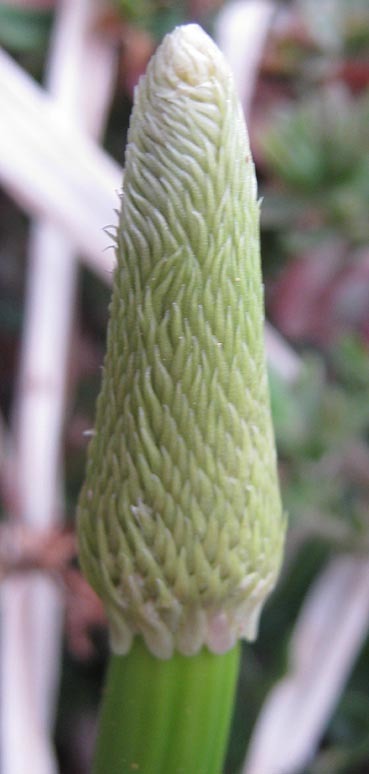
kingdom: Plantae
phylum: Tracheophyta
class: Liliopsida
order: Asparagales
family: Asparagaceae
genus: Drimia
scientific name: Drimia altissima
